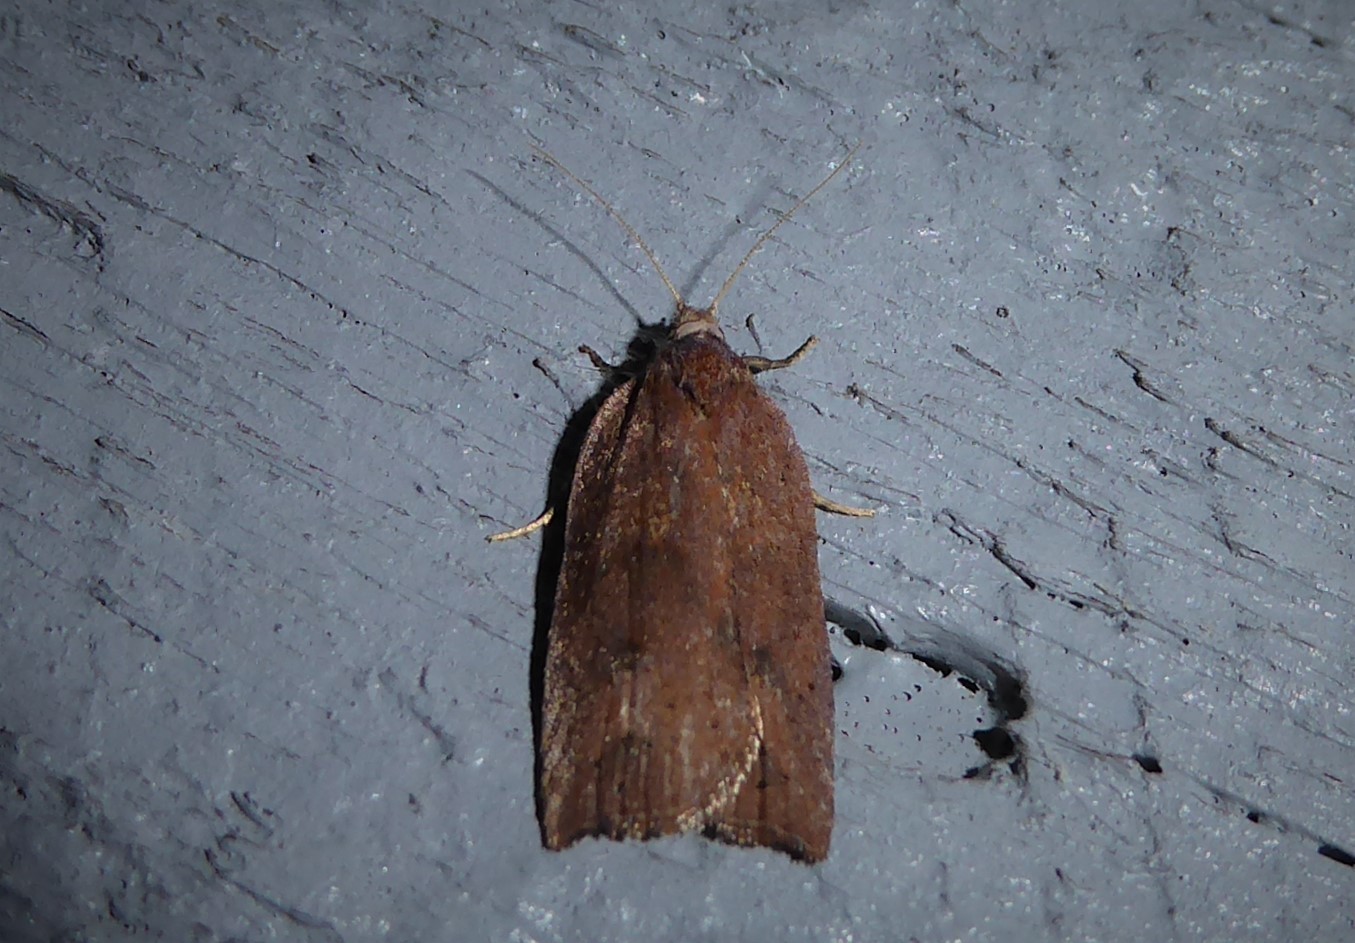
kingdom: Animalia
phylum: Arthropoda
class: Insecta
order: Lepidoptera
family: Tortricidae
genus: Planotortrix
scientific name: Planotortrix excessana
